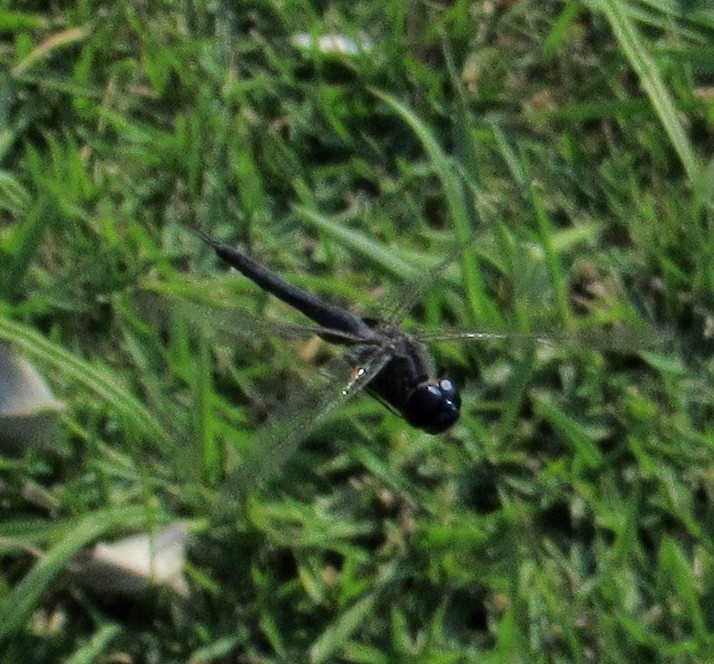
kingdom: Animalia
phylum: Arthropoda
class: Insecta
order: Odonata
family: Libellulidae
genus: Tramea
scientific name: Tramea binotata
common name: Sooty saddlebags
